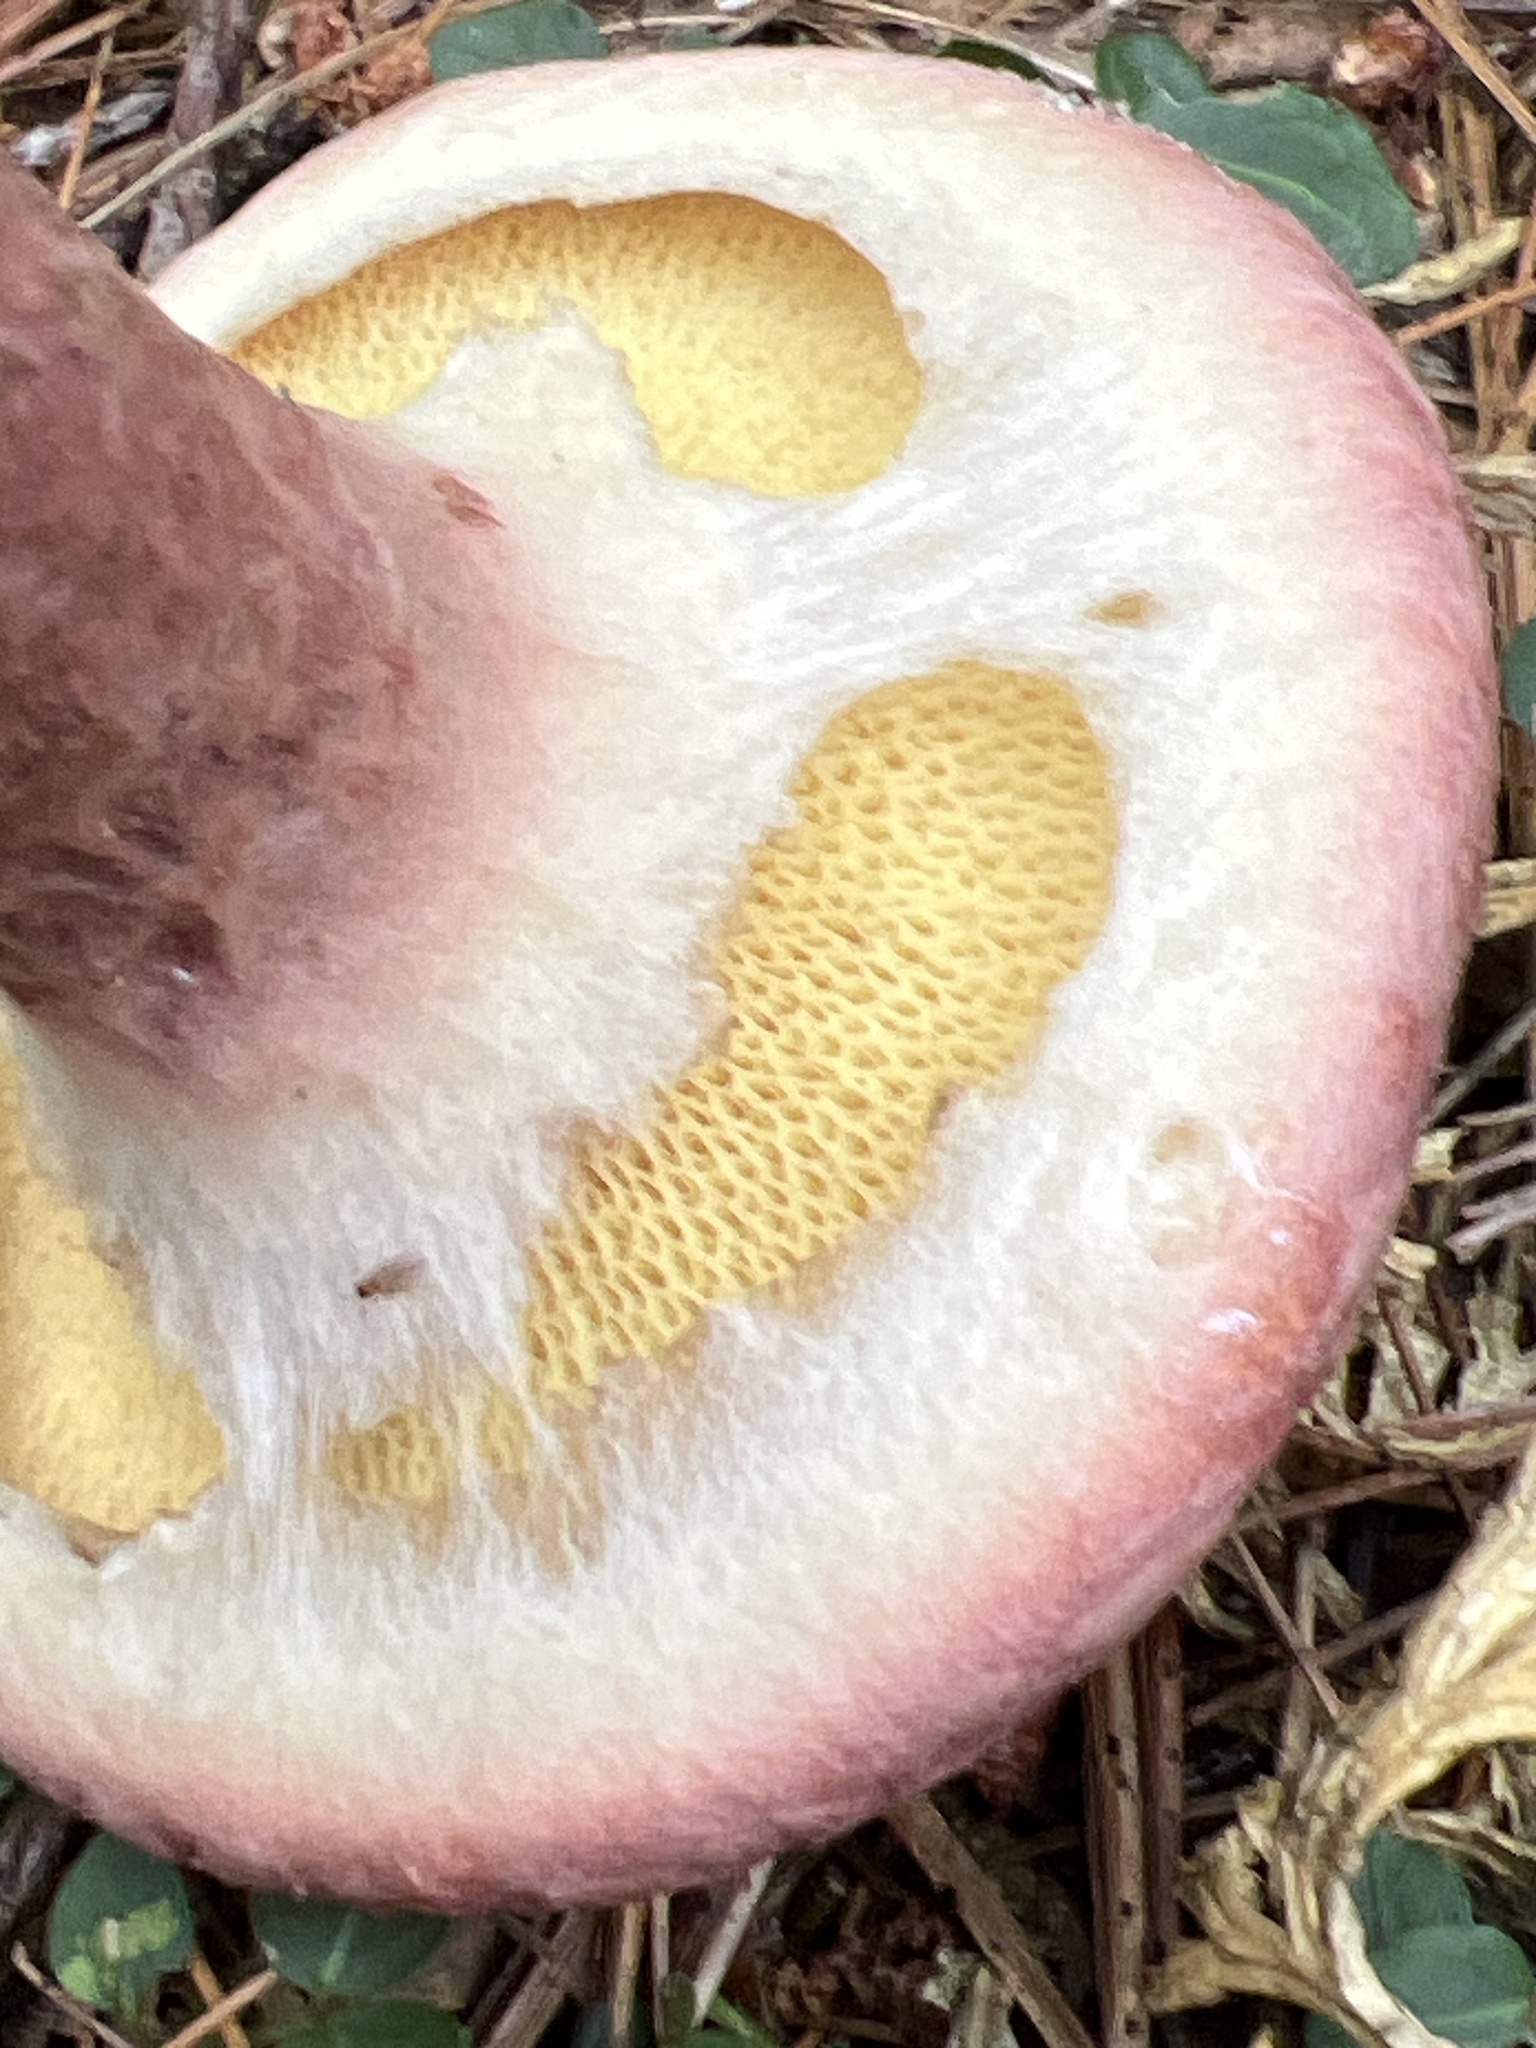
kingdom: Fungi
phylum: Basidiomycota
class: Agaricomycetes
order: Boletales
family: Suillaceae
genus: Suillus
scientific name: Suillus spraguei
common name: Painted suillus
